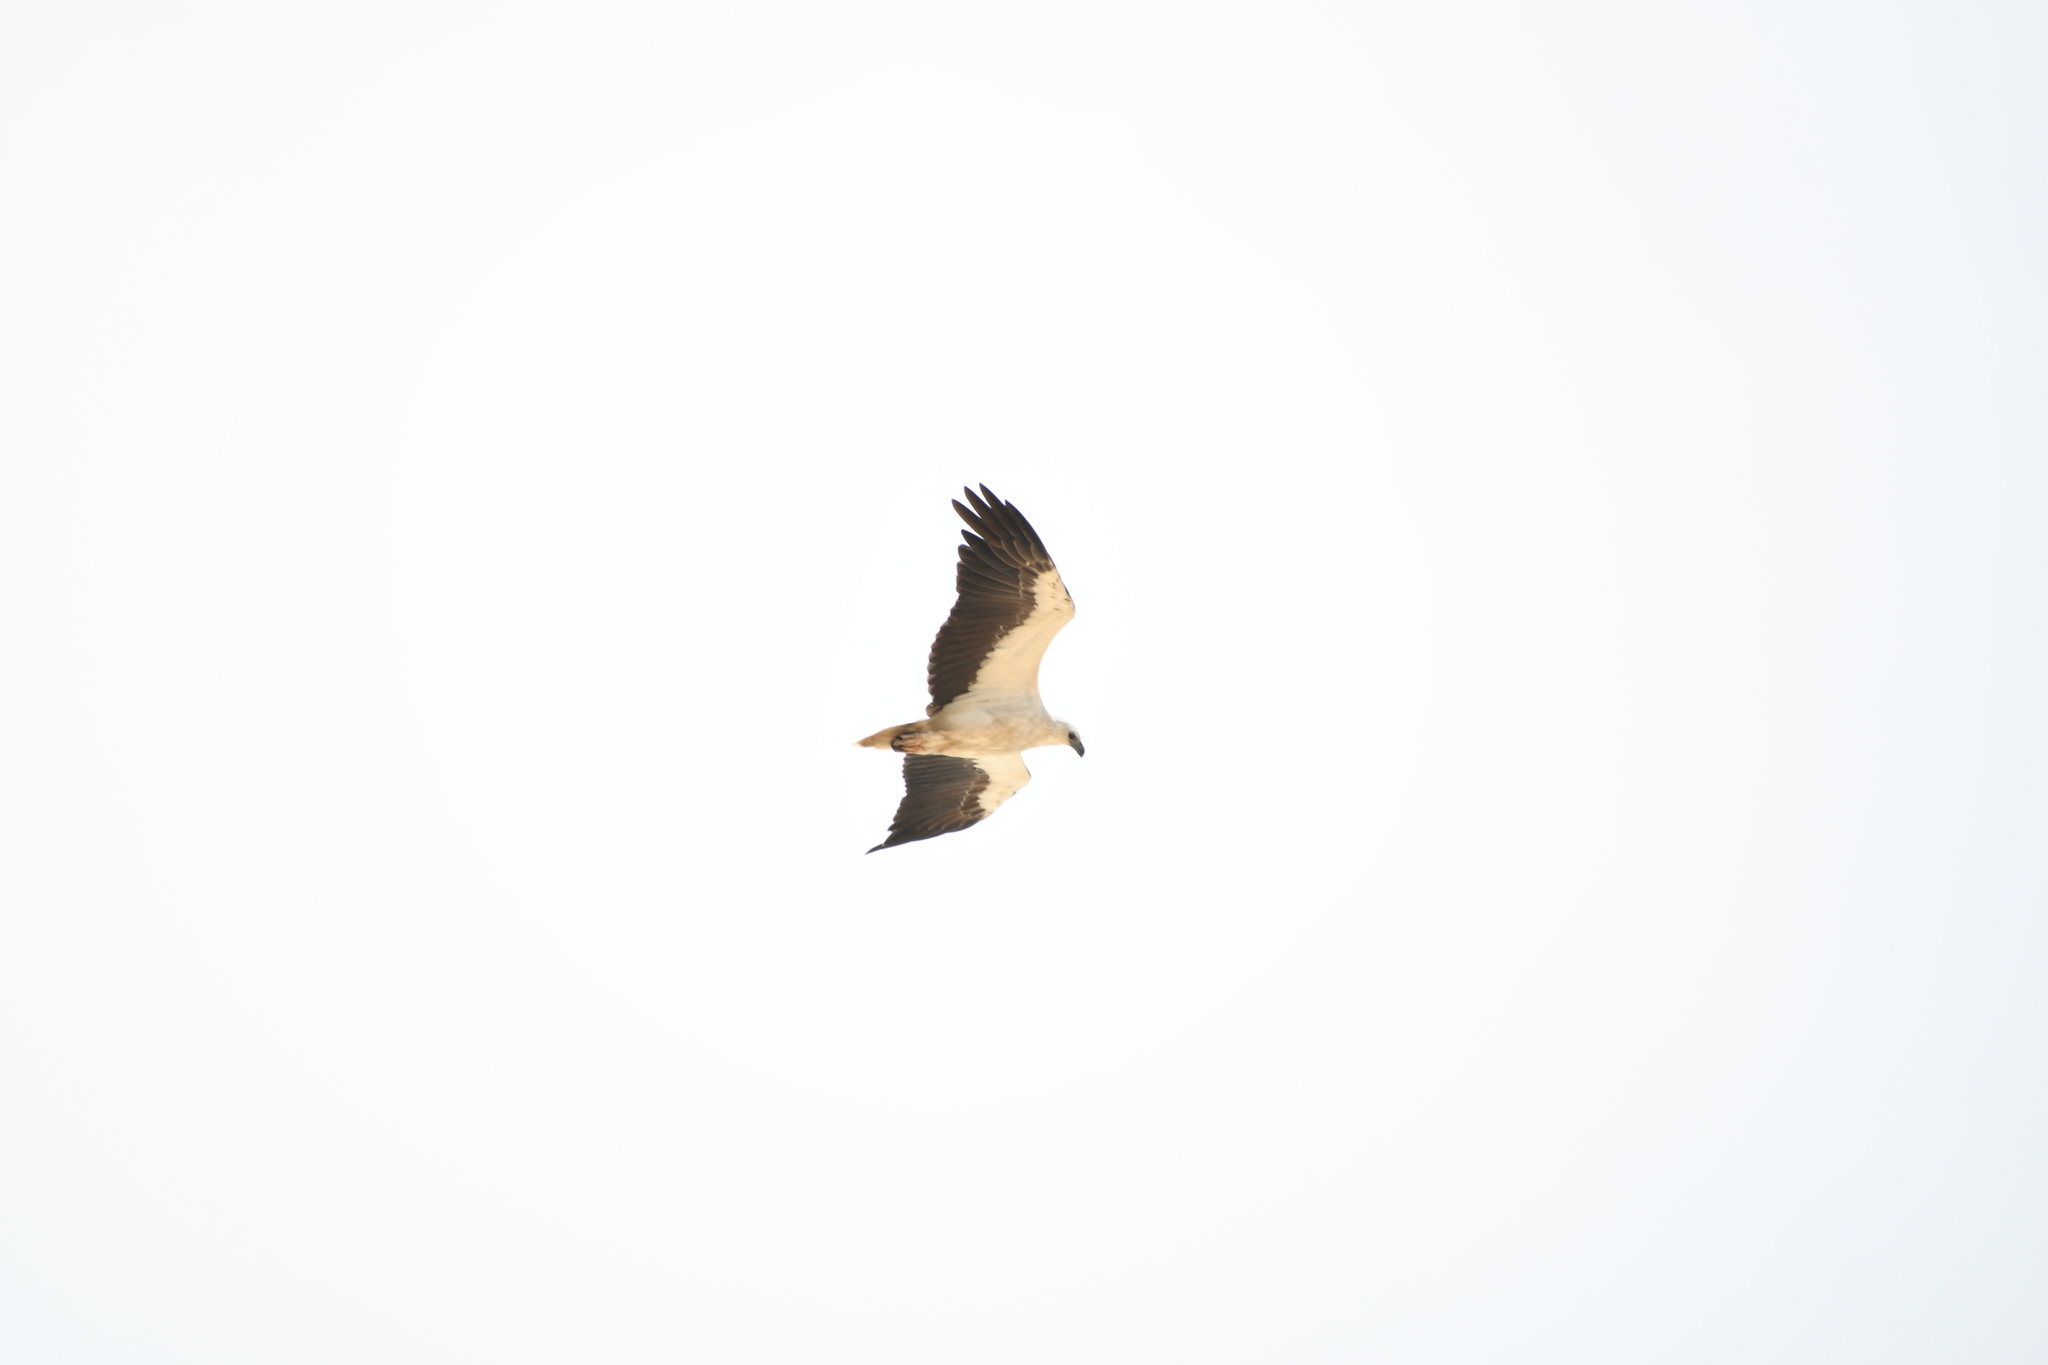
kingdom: Animalia
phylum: Chordata
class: Aves
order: Accipitriformes
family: Accipitridae
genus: Haliaeetus
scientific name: Haliaeetus leucogaster
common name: White-bellied sea eagle
